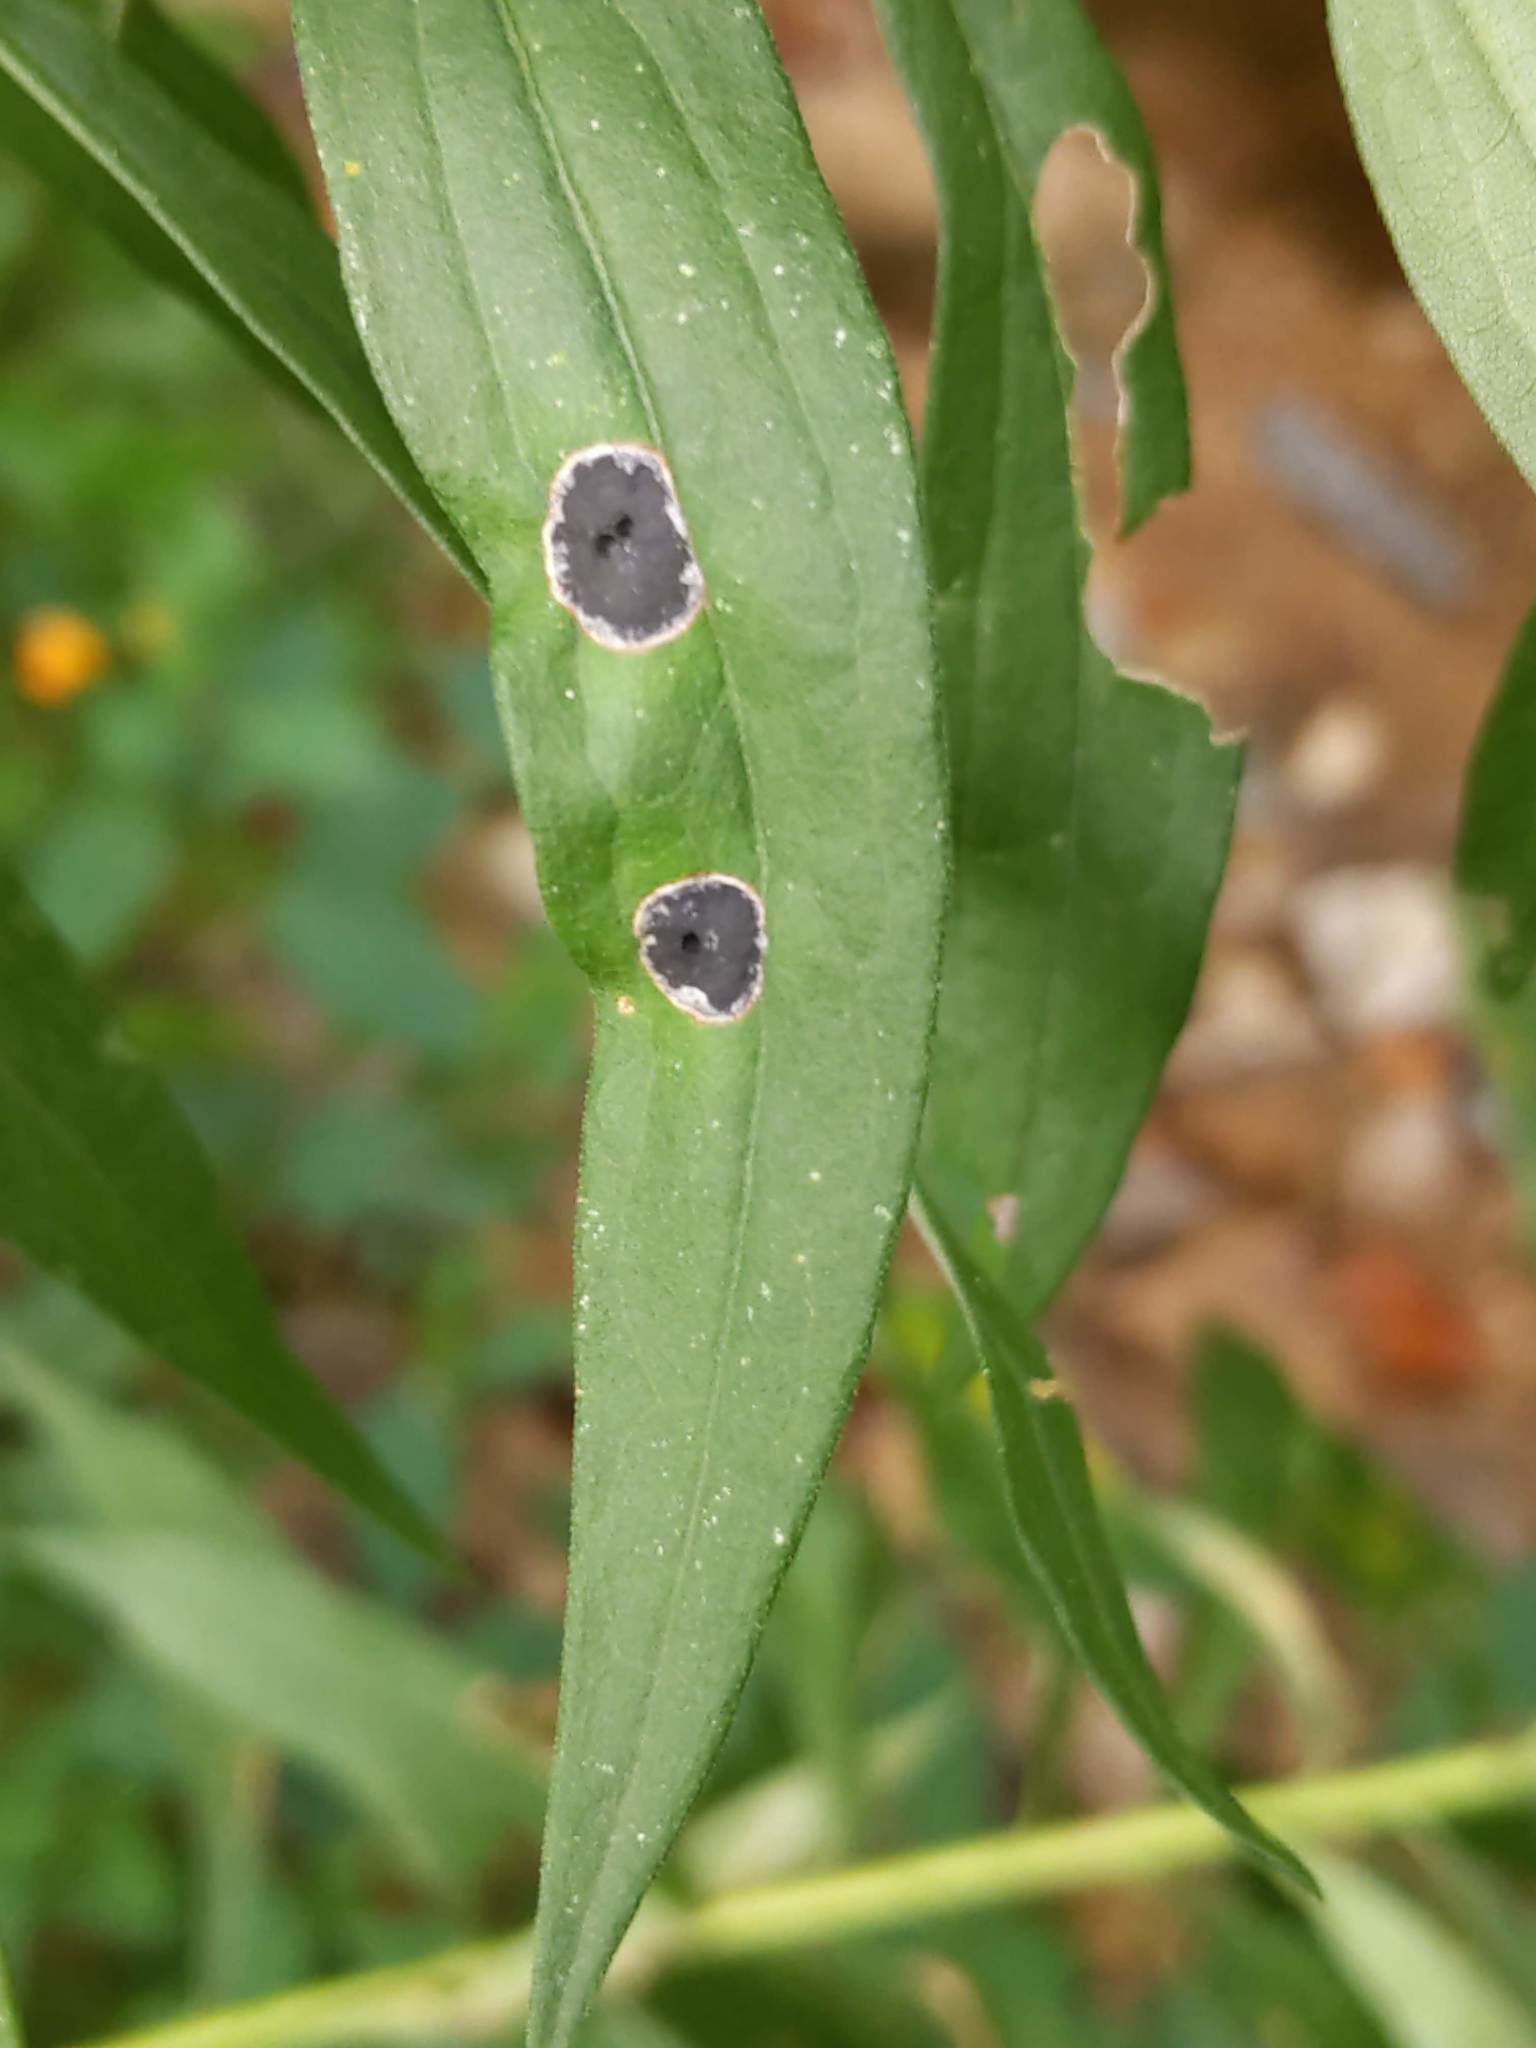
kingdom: Animalia
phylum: Arthropoda
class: Insecta
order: Diptera
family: Cecidomyiidae
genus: Asteromyia
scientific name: Asteromyia carbonifera
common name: Carbonifera goldenrod gall midge
